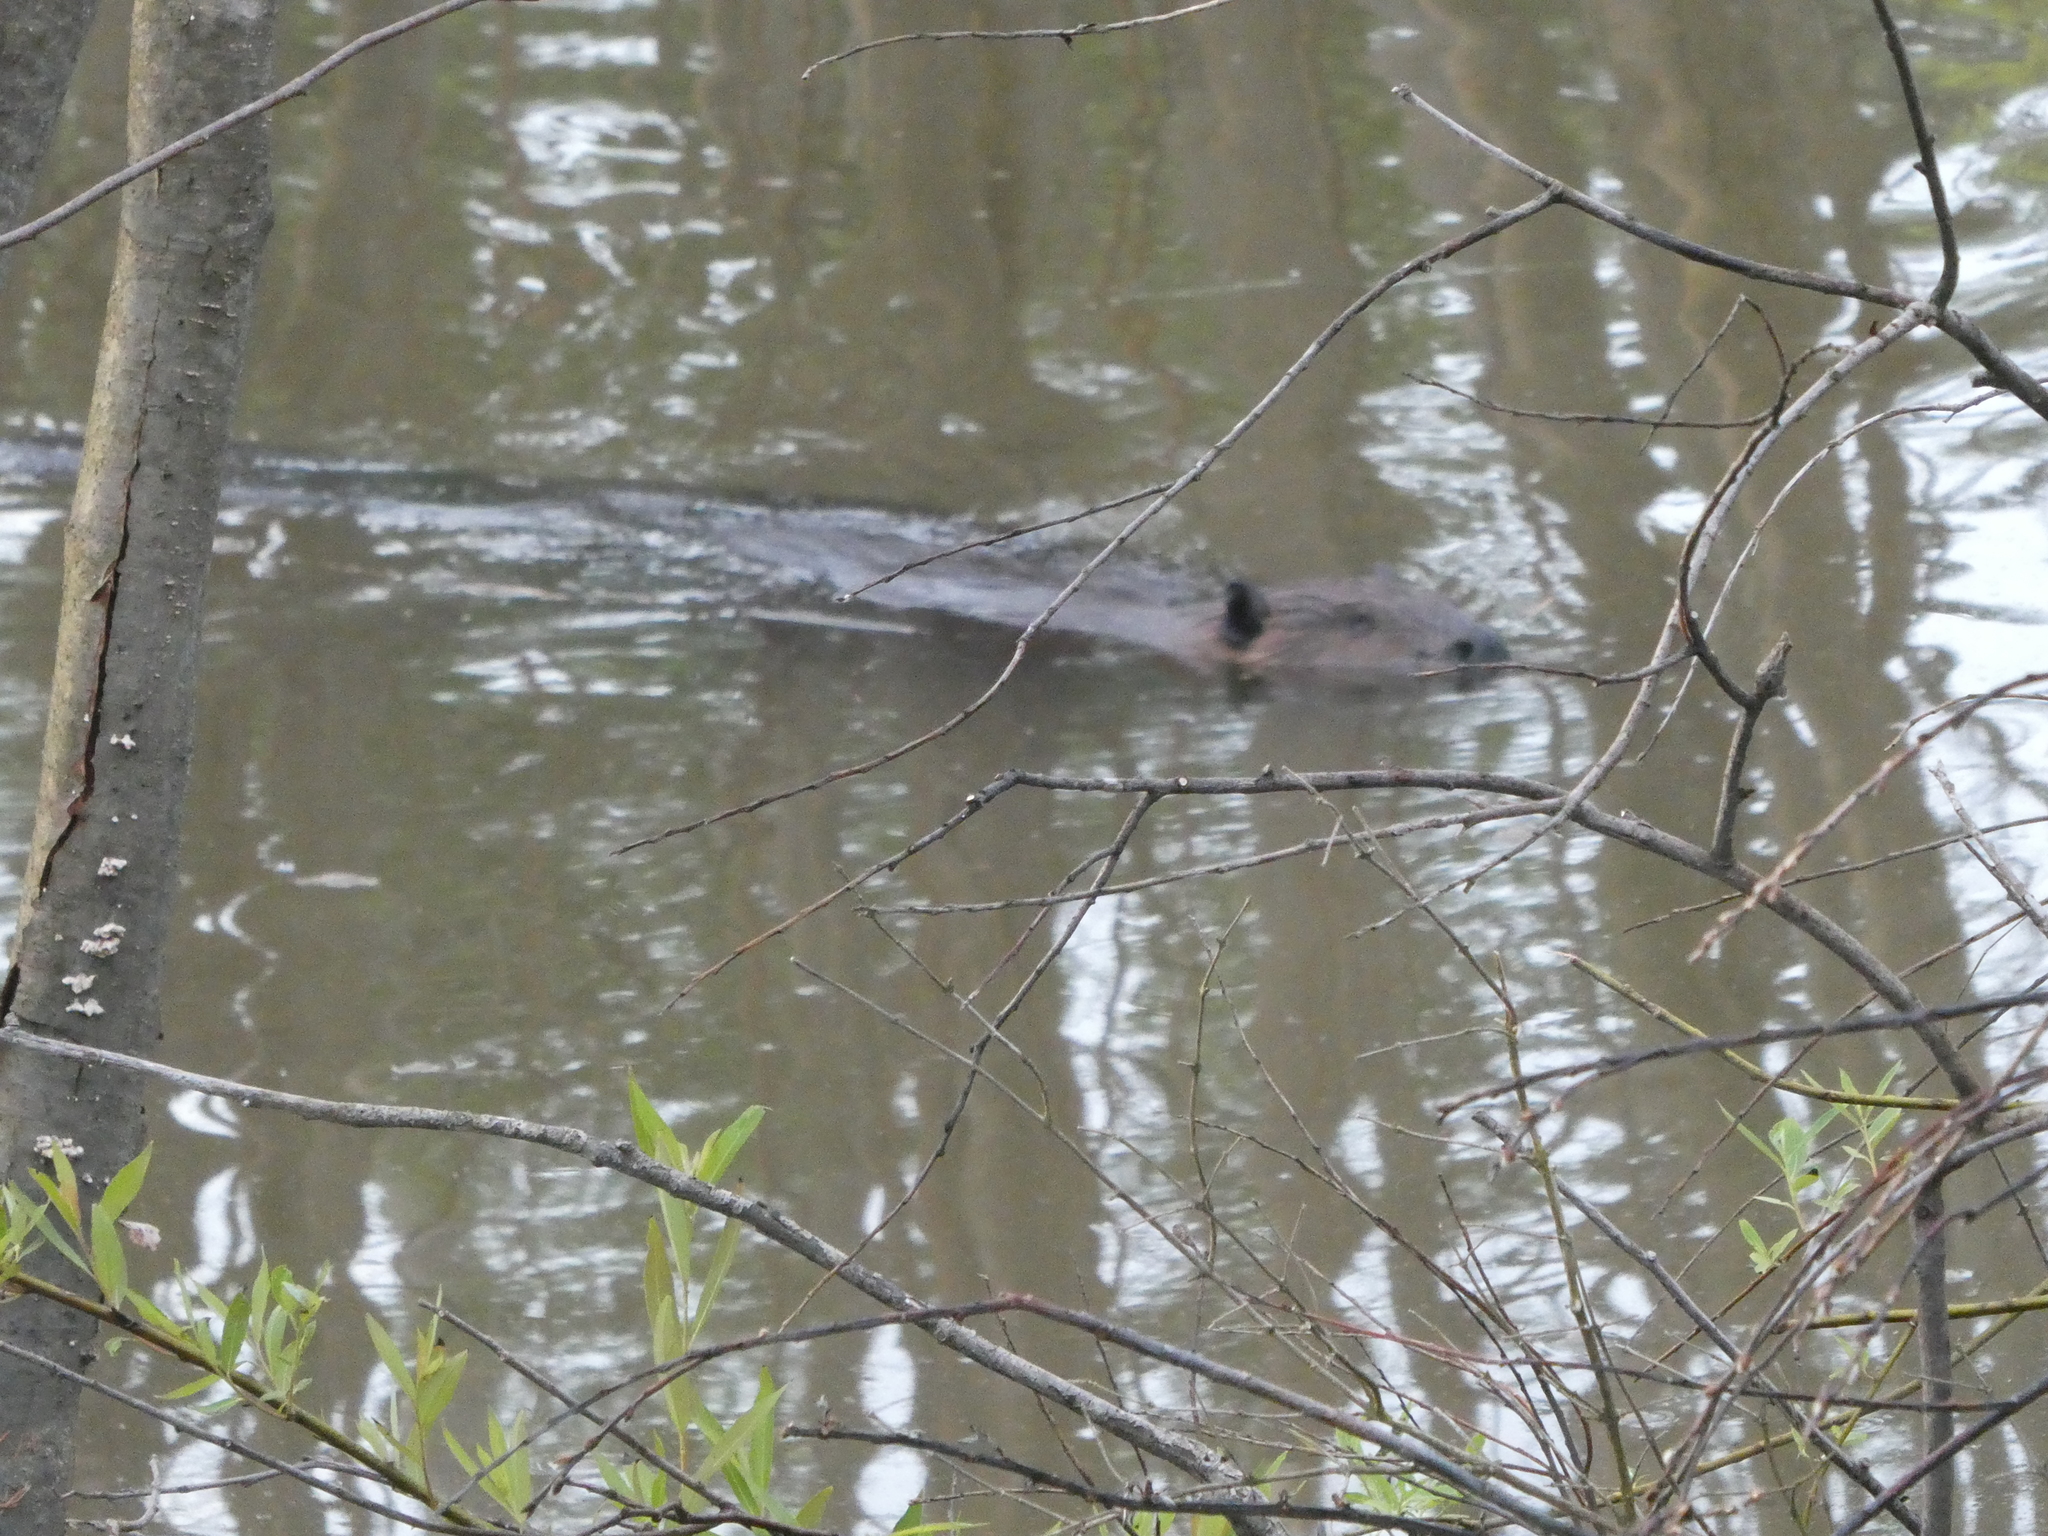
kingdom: Animalia
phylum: Chordata
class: Mammalia
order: Rodentia
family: Castoridae
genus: Castor
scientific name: Castor canadensis
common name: American beaver
